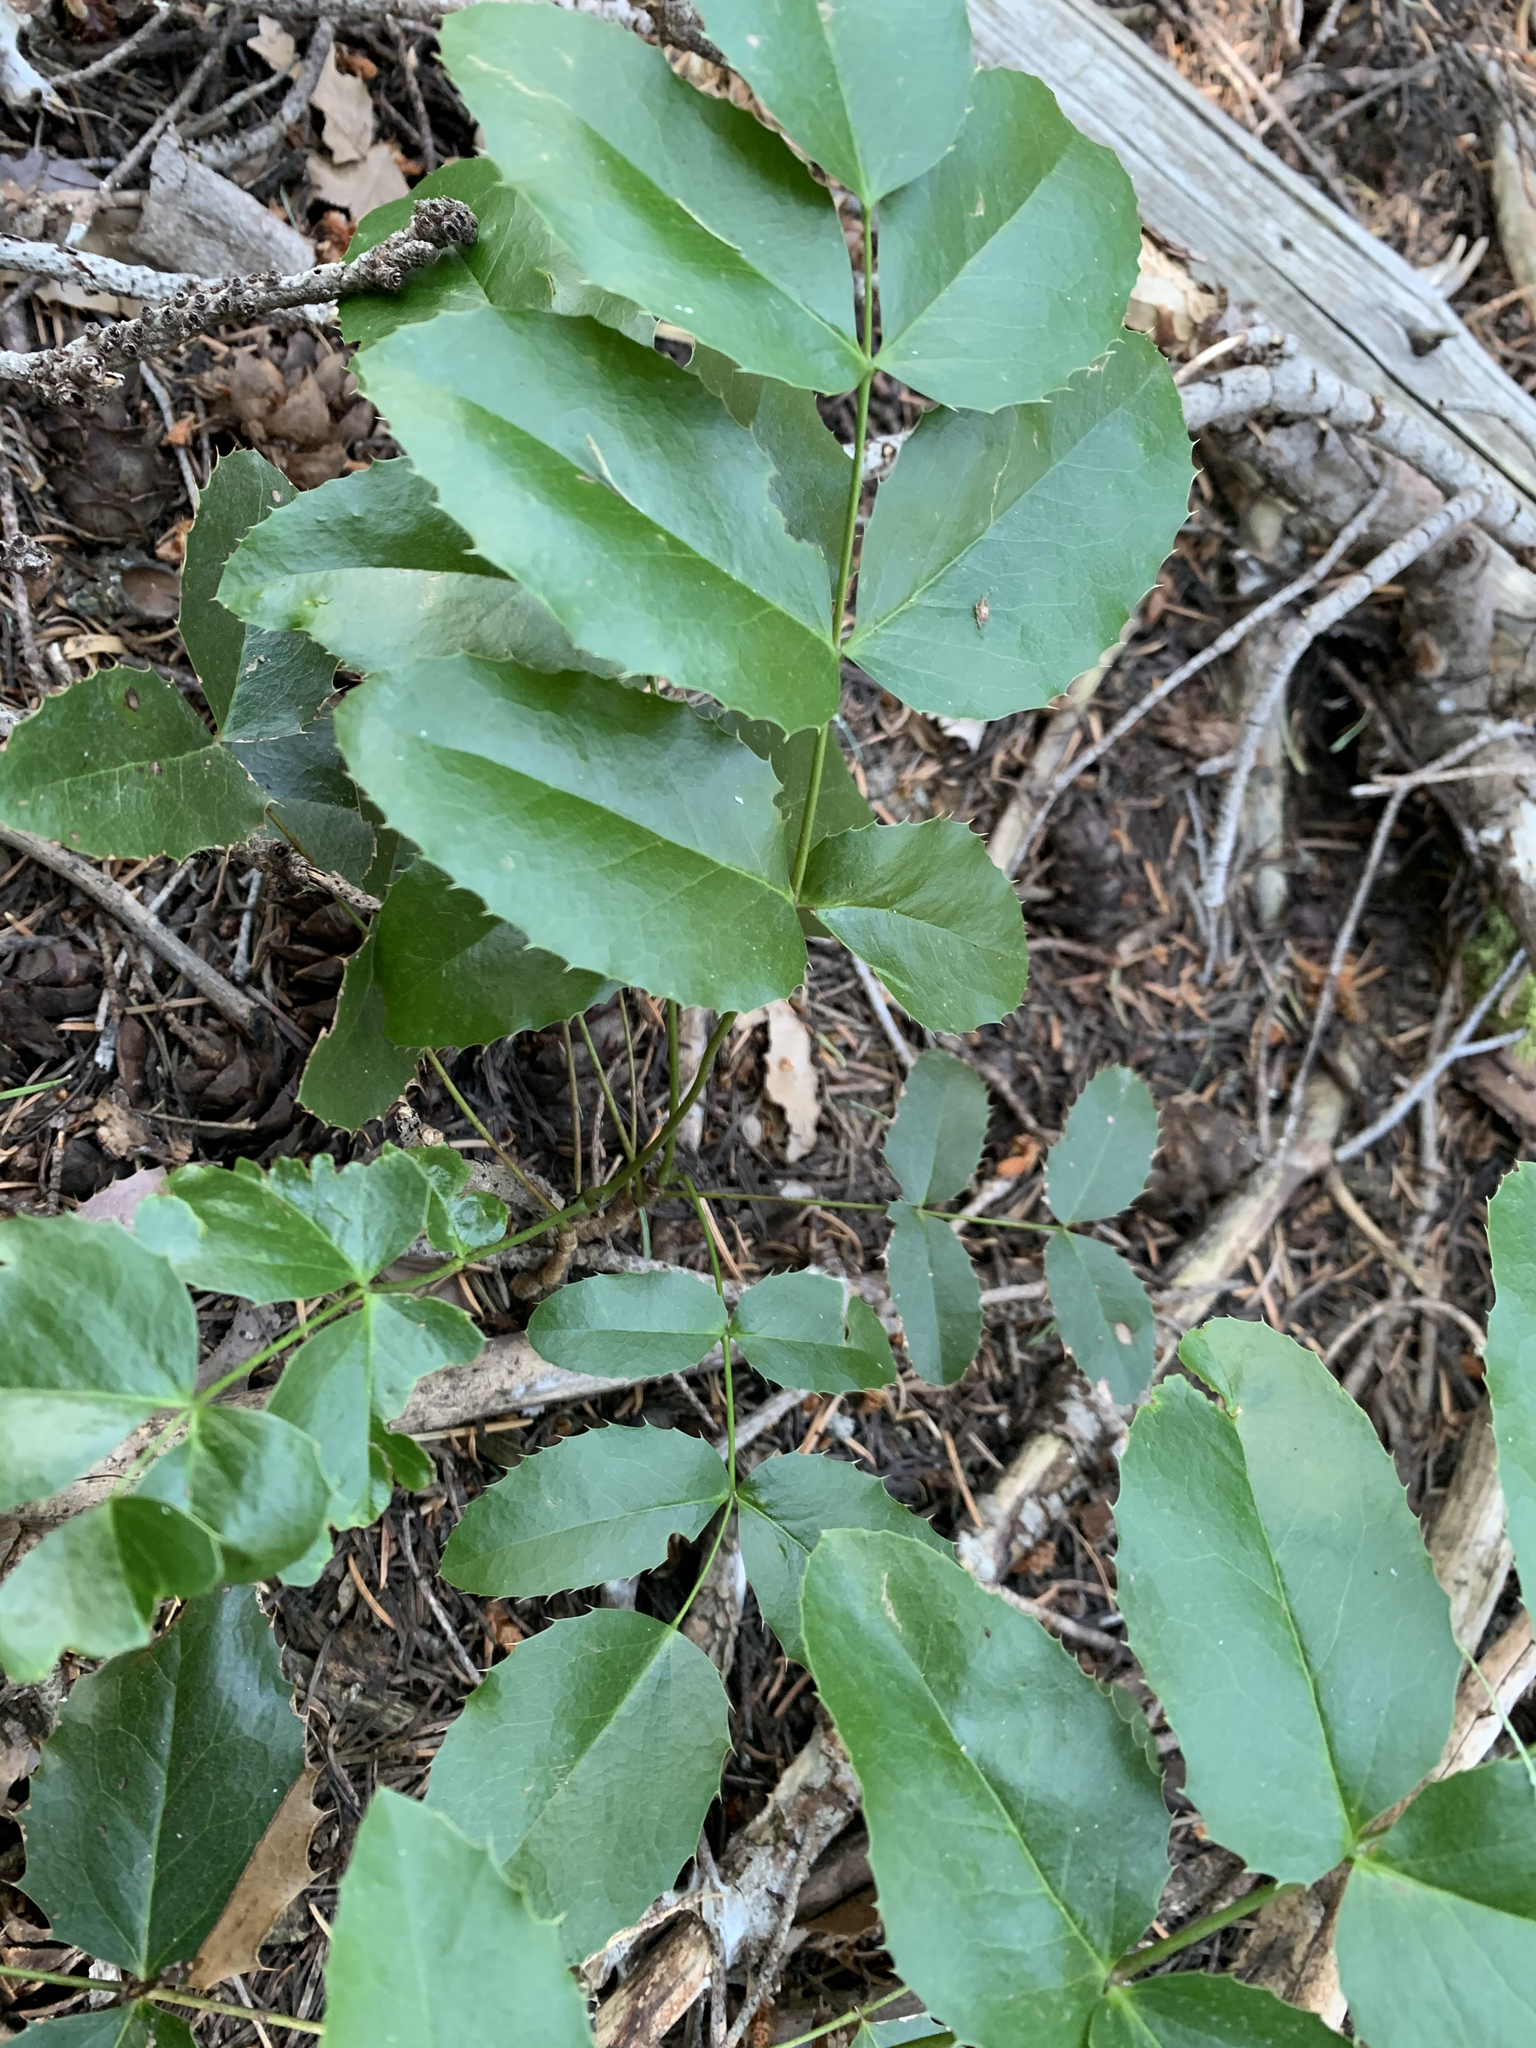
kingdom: Plantae
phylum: Tracheophyta
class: Magnoliopsida
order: Ranunculales
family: Berberidaceae
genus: Mahonia
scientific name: Mahonia repens
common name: Creeping oregon-grape
